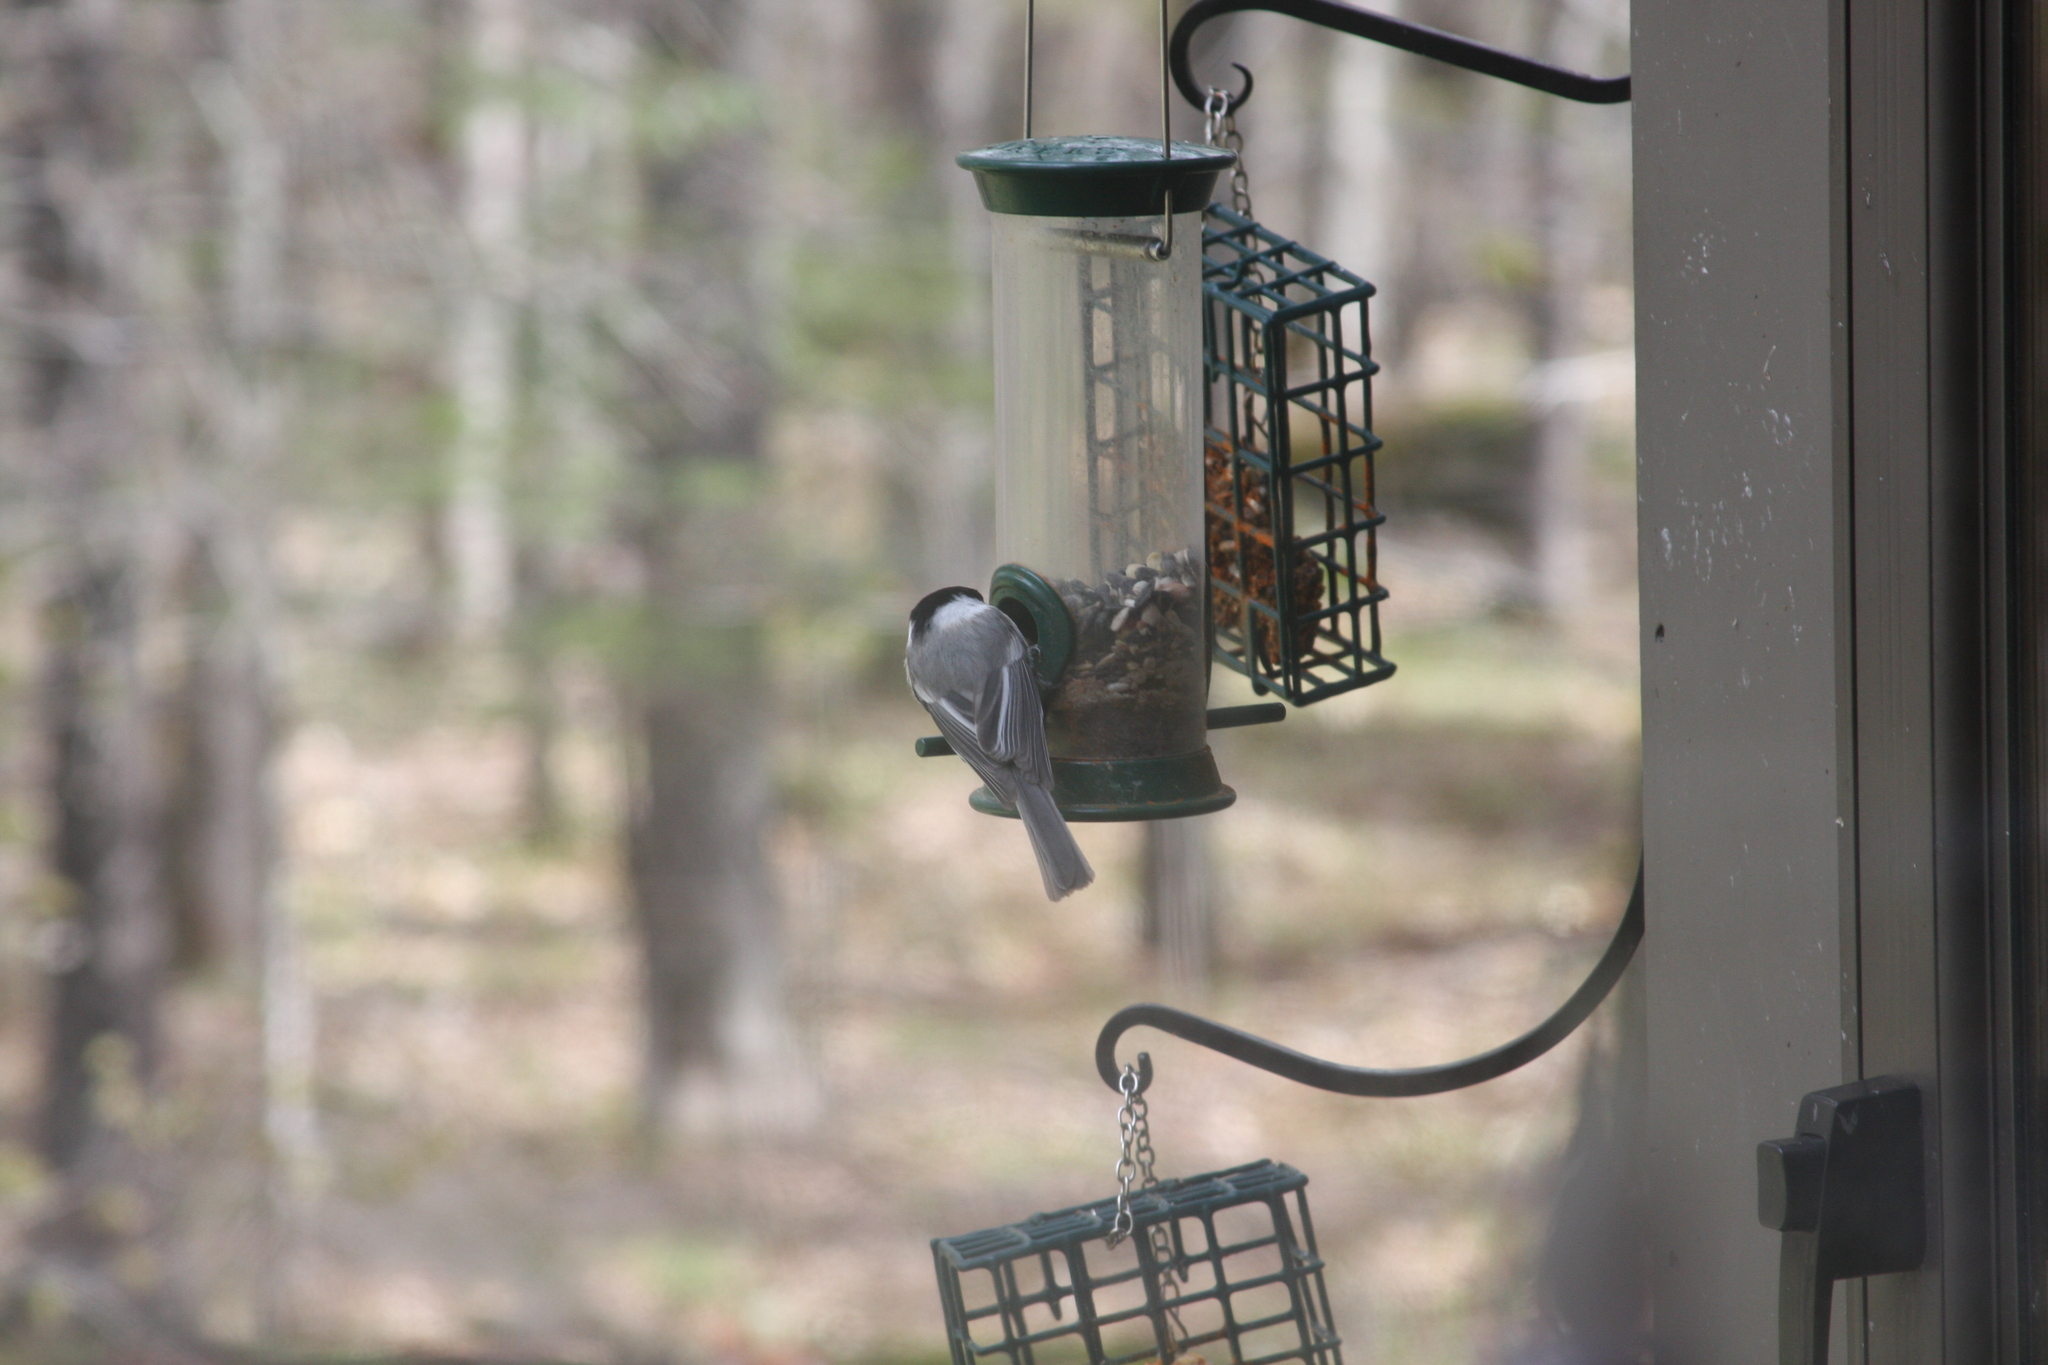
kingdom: Animalia
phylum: Chordata
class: Aves
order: Passeriformes
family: Paridae
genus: Poecile
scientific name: Poecile atricapillus
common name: Black-capped chickadee
